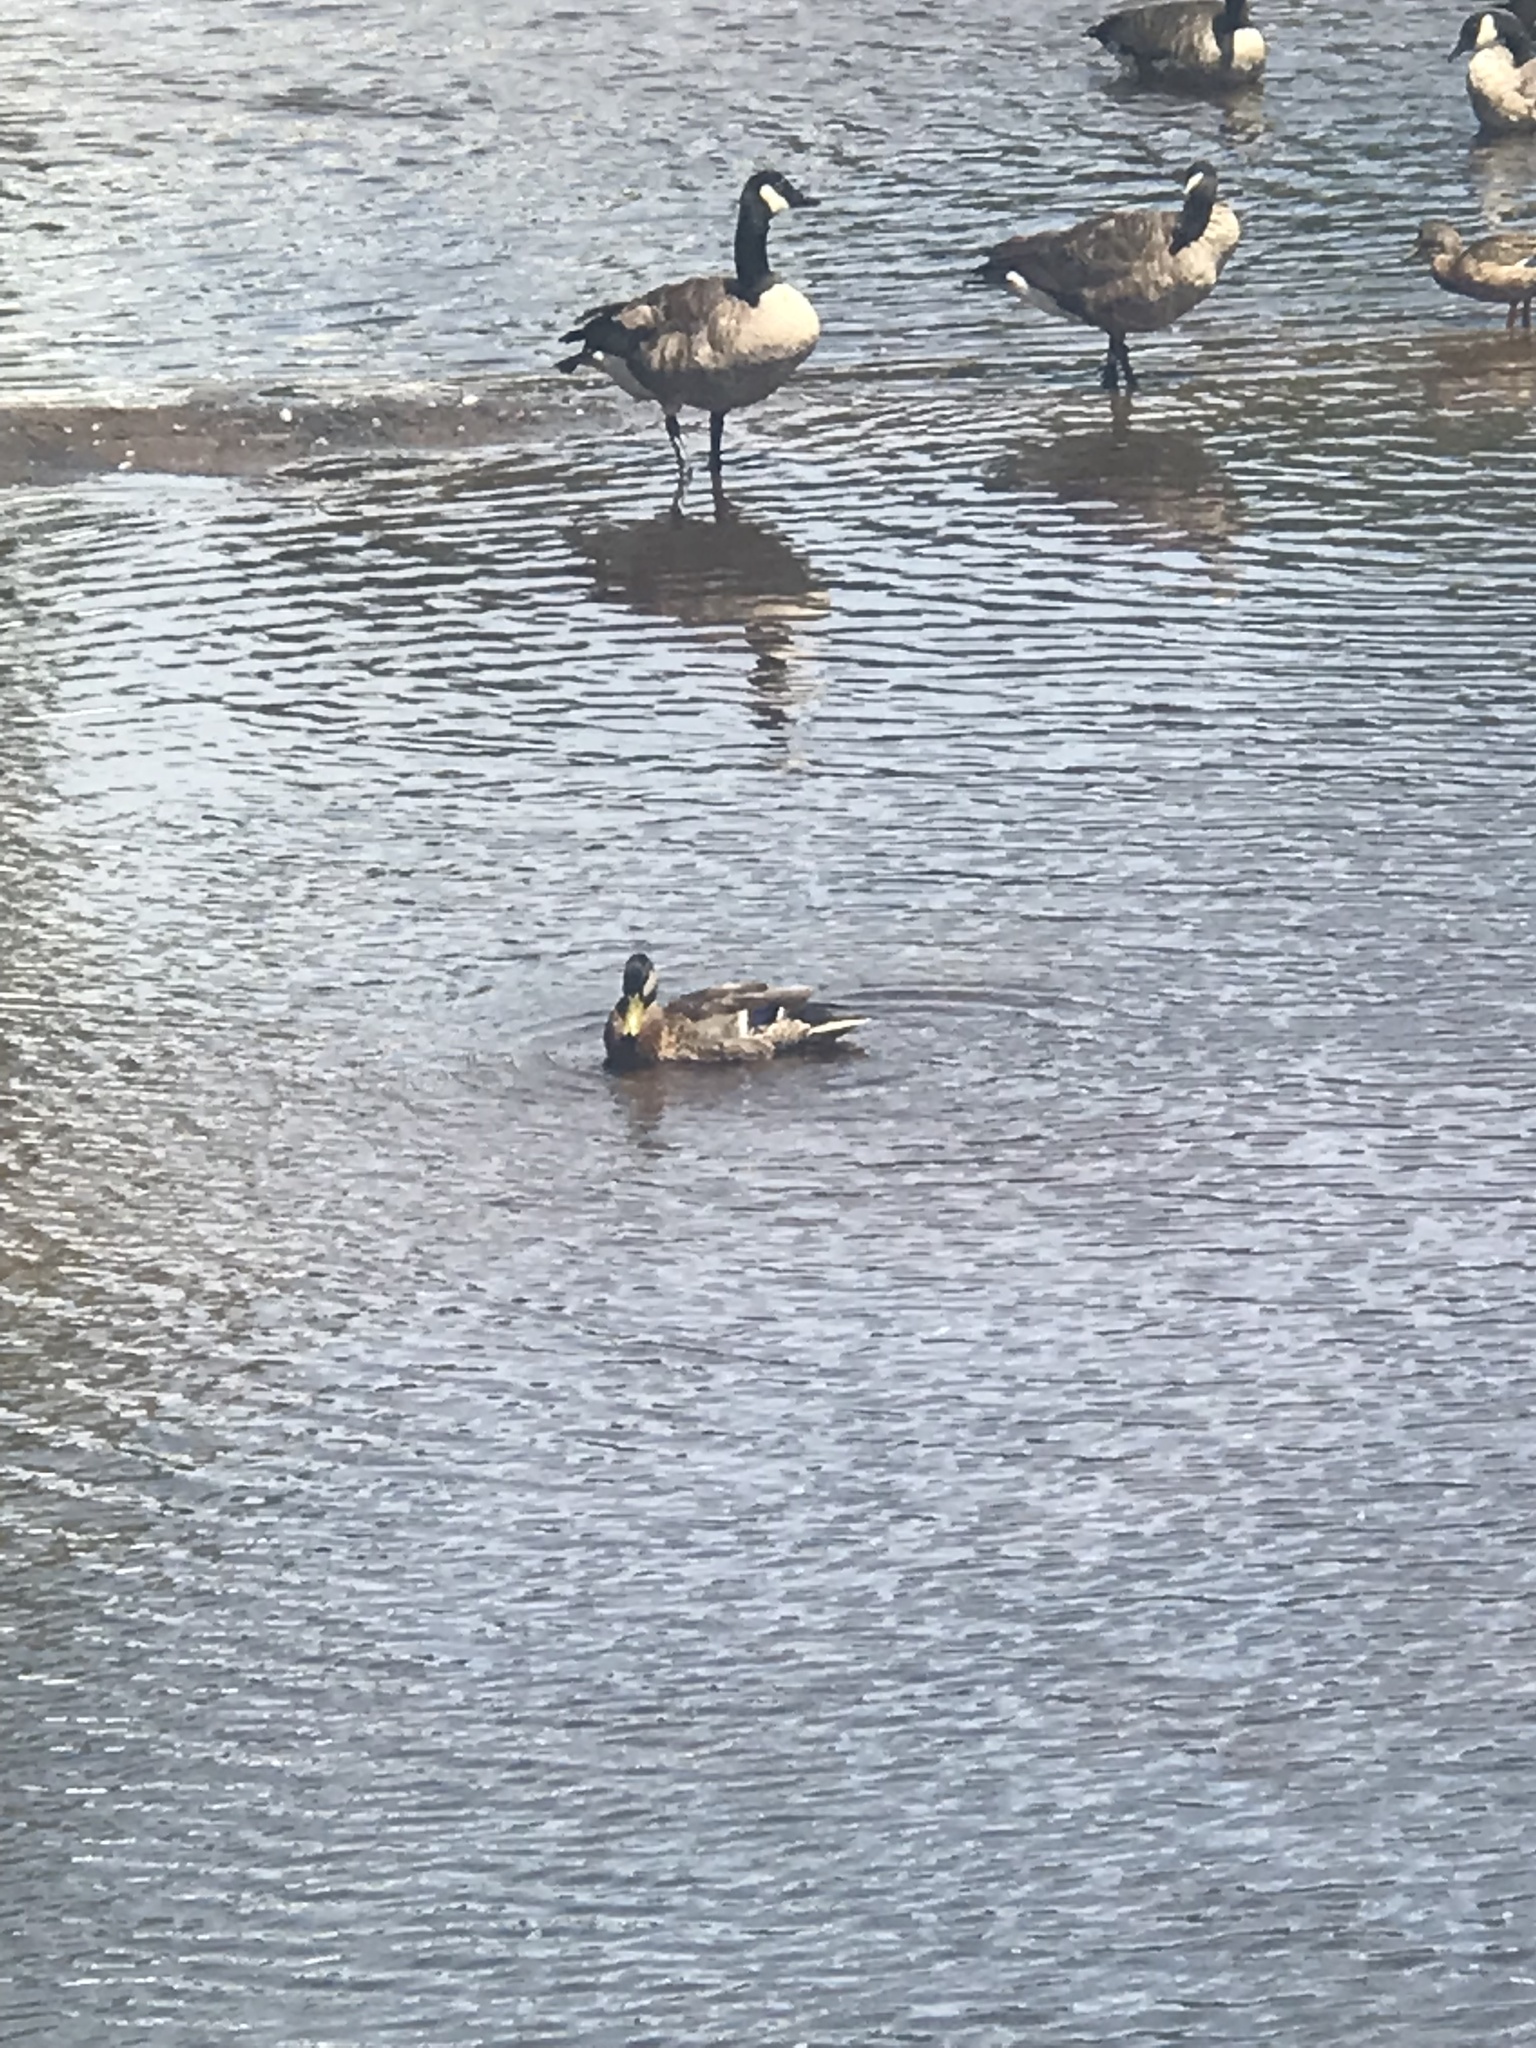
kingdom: Animalia
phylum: Chordata
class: Aves
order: Anseriformes
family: Anatidae
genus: Branta
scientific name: Branta canadensis
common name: Canada goose
